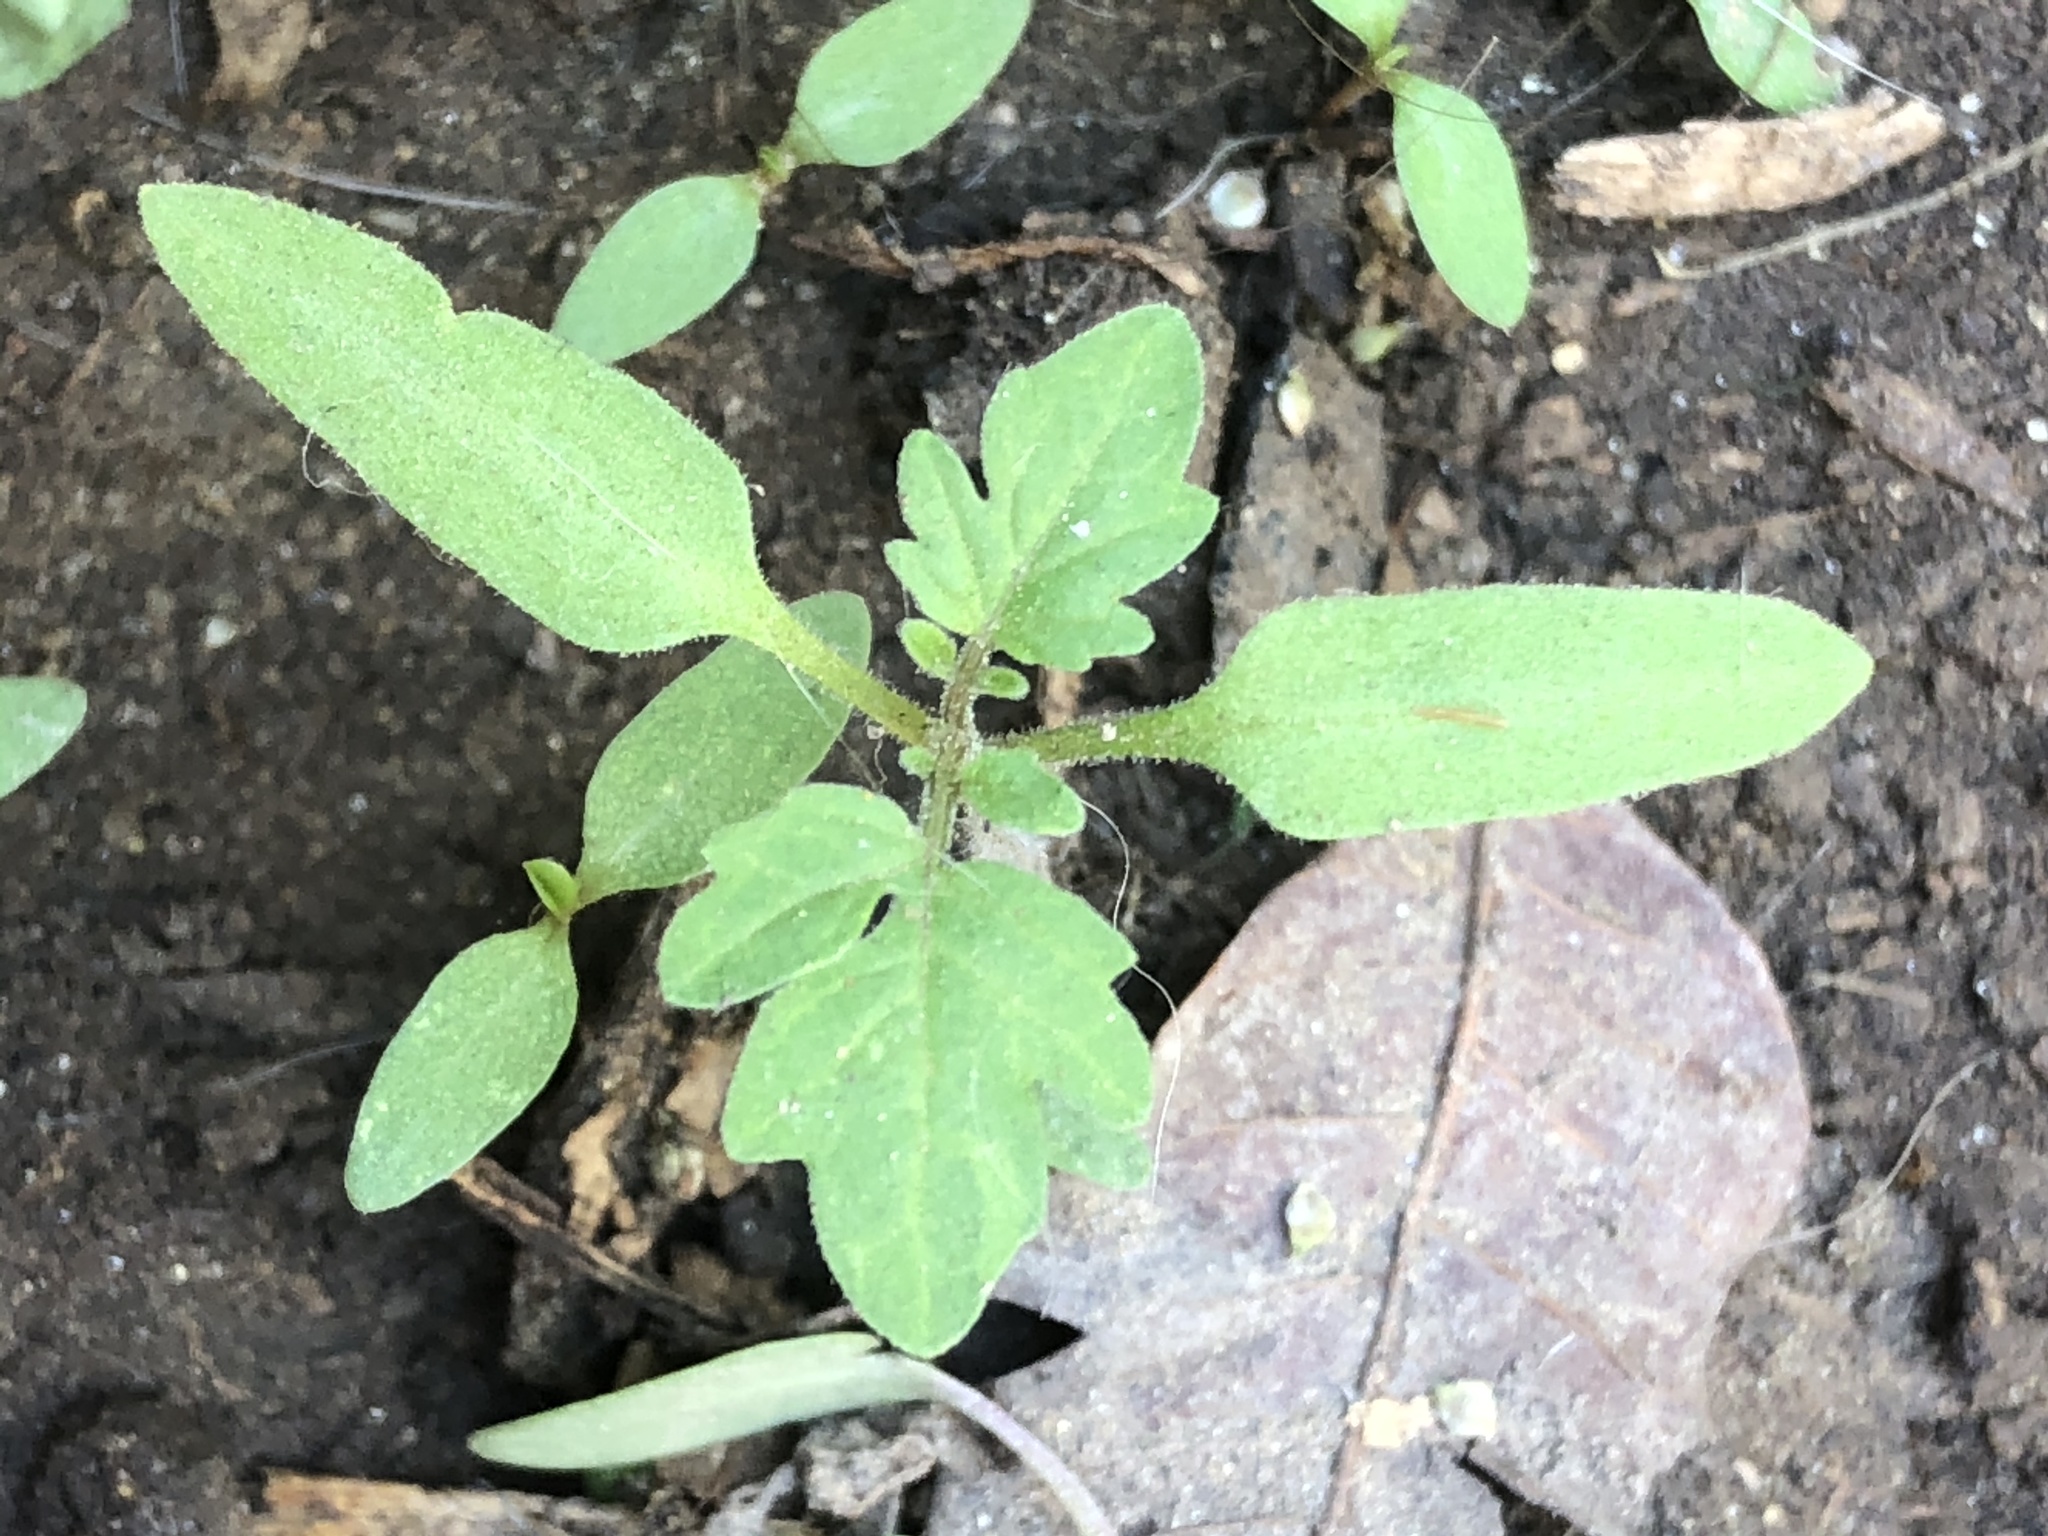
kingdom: Plantae
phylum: Tracheophyta
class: Magnoliopsida
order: Solanales
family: Solanaceae
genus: Solanum
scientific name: Solanum lycopersicum
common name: Garden tomato
